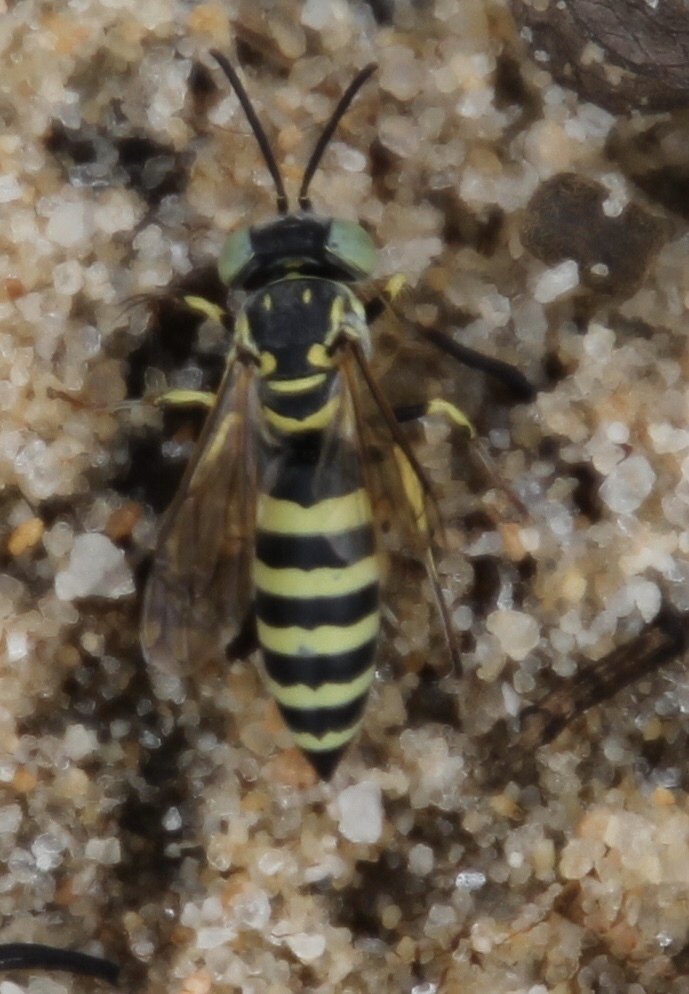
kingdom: Animalia
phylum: Arthropoda
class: Insecta
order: Hymenoptera
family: Crabronidae
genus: Microbembex
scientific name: Microbembex monodonta
